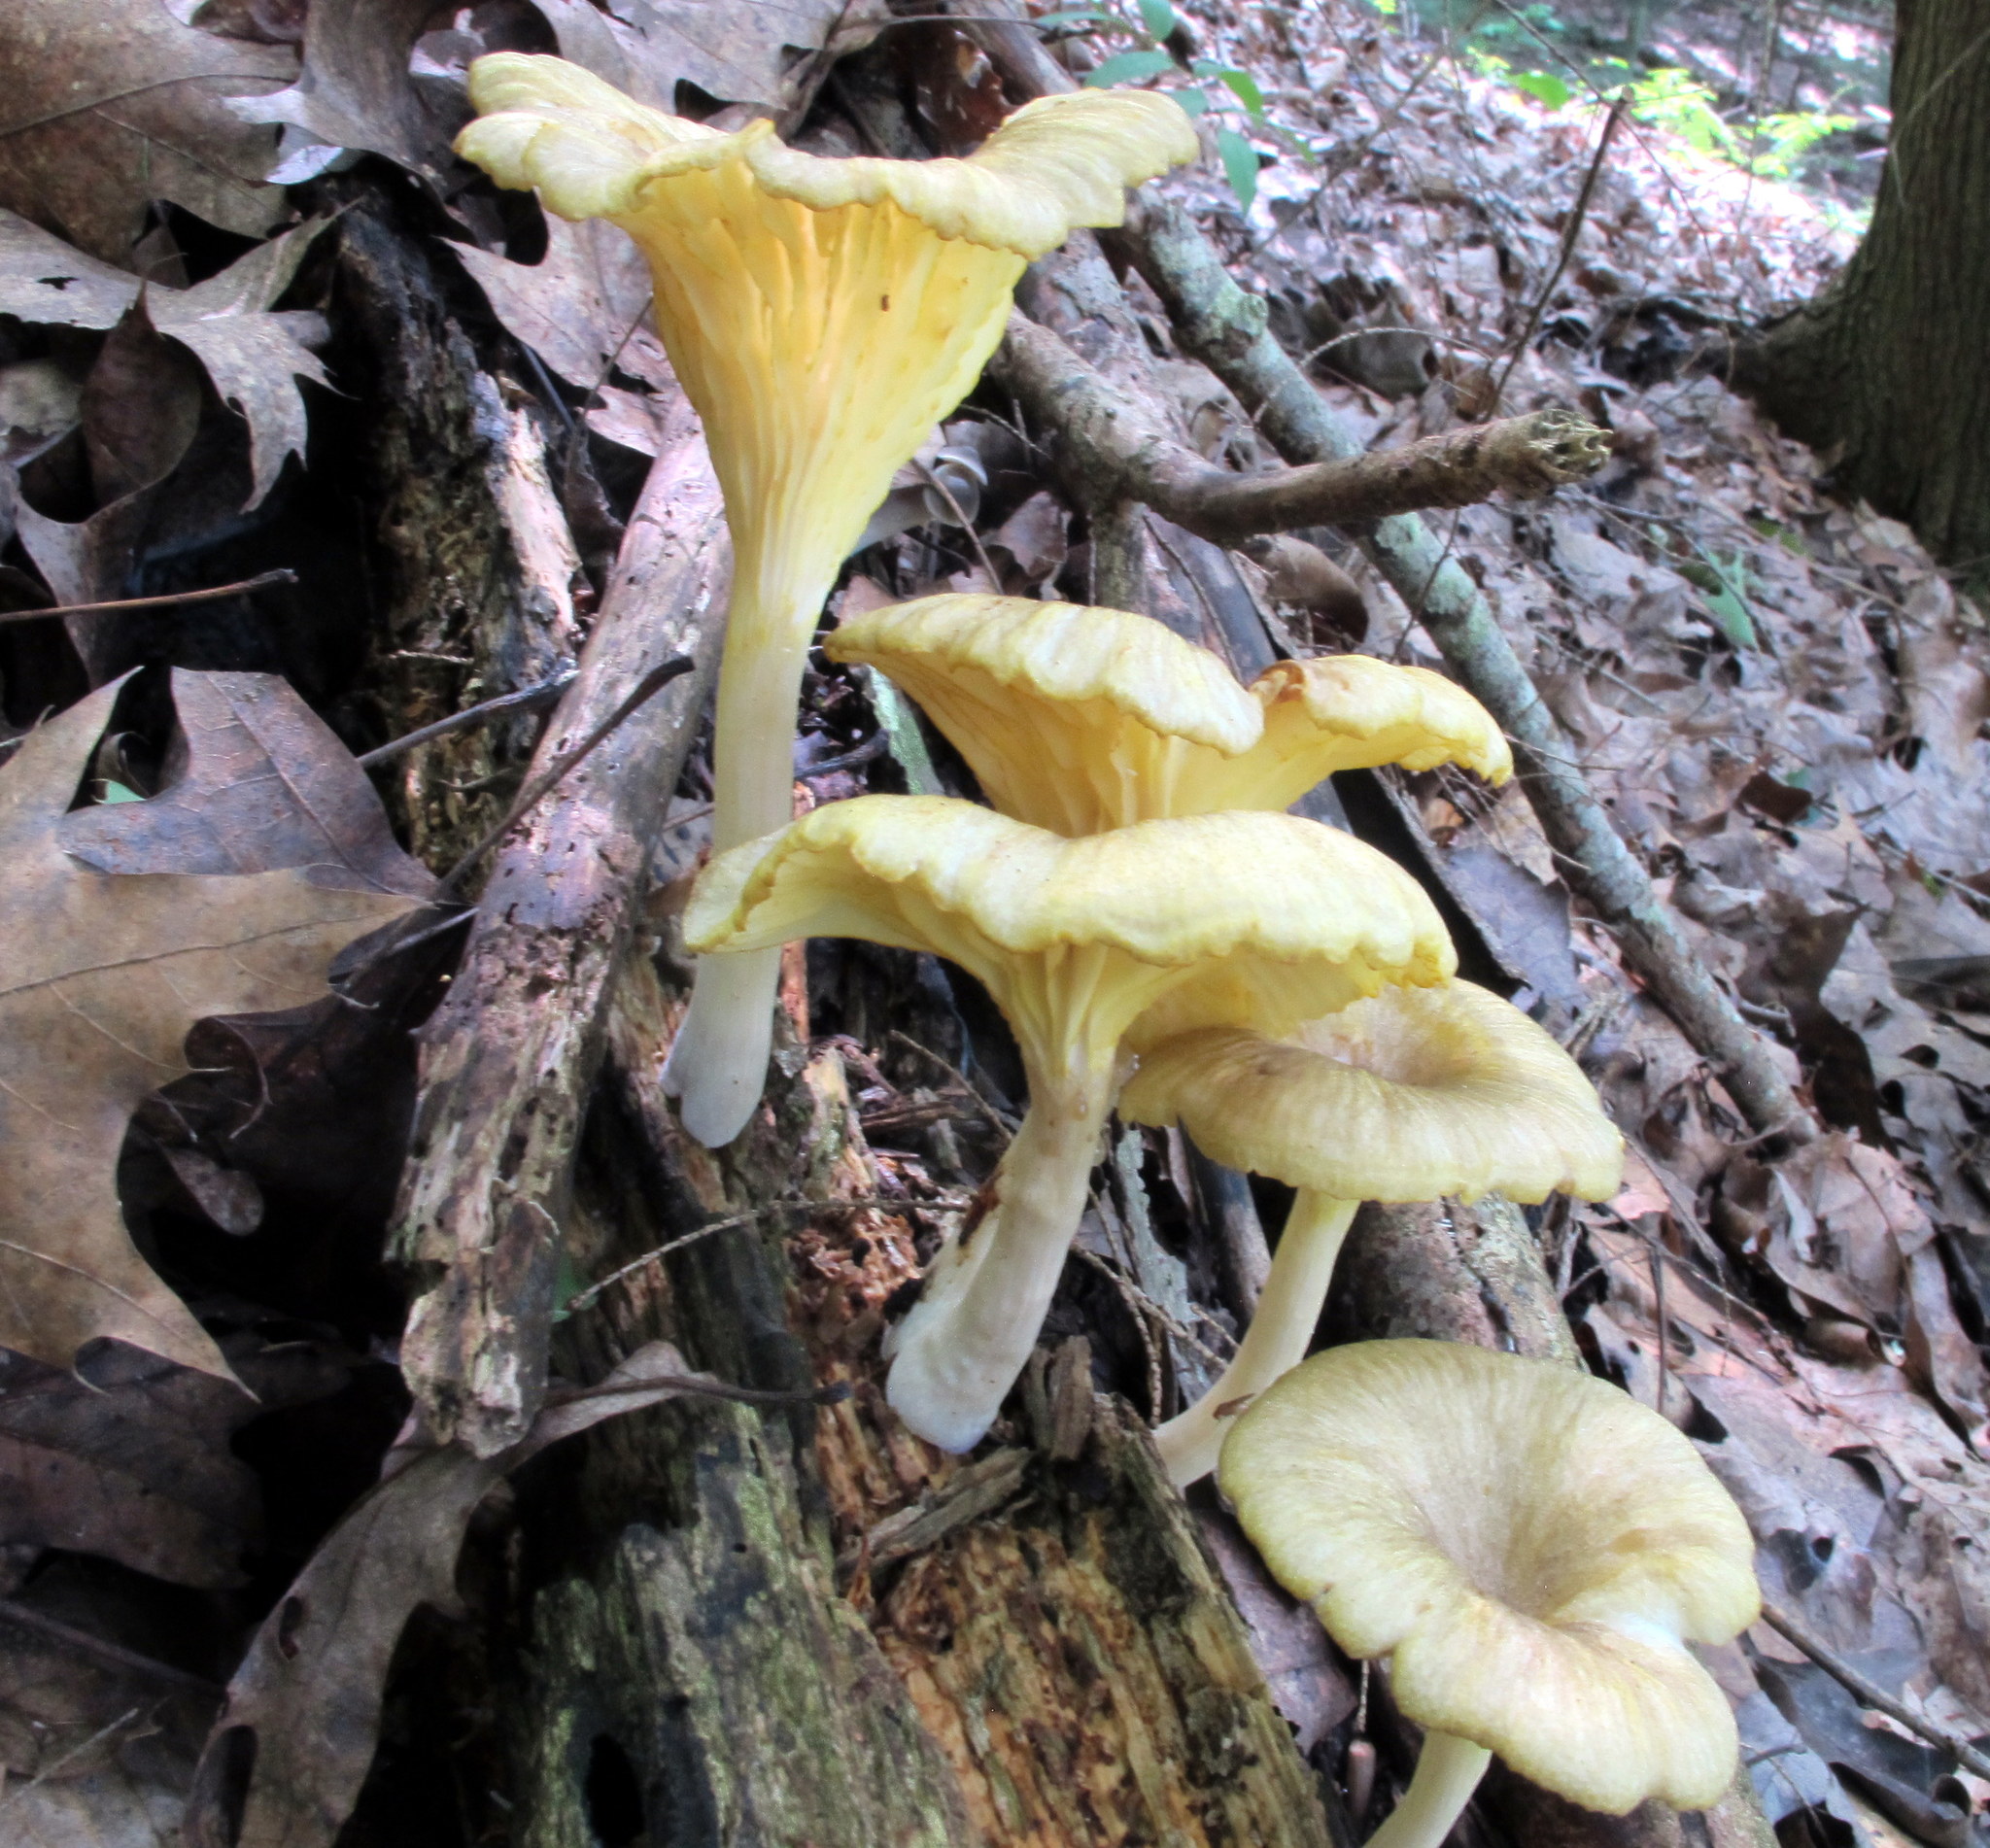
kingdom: Fungi
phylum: Basidiomycota
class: Agaricomycetes
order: Agaricales
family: Marasmiaceae
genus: Gerronema
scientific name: Gerronema strombodes
